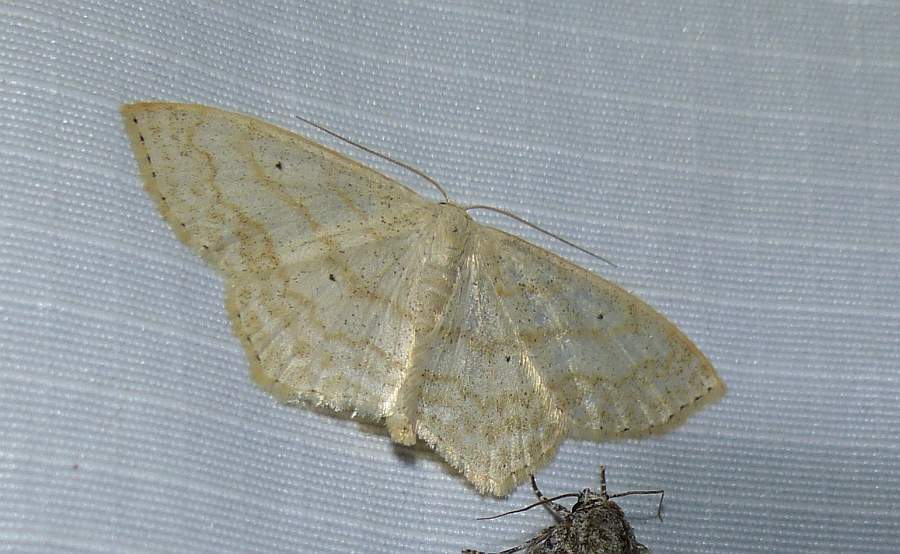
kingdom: Animalia
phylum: Arthropoda
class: Insecta
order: Lepidoptera
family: Geometridae
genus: Scopula
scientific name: Scopula limboundata
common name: Large lace border
